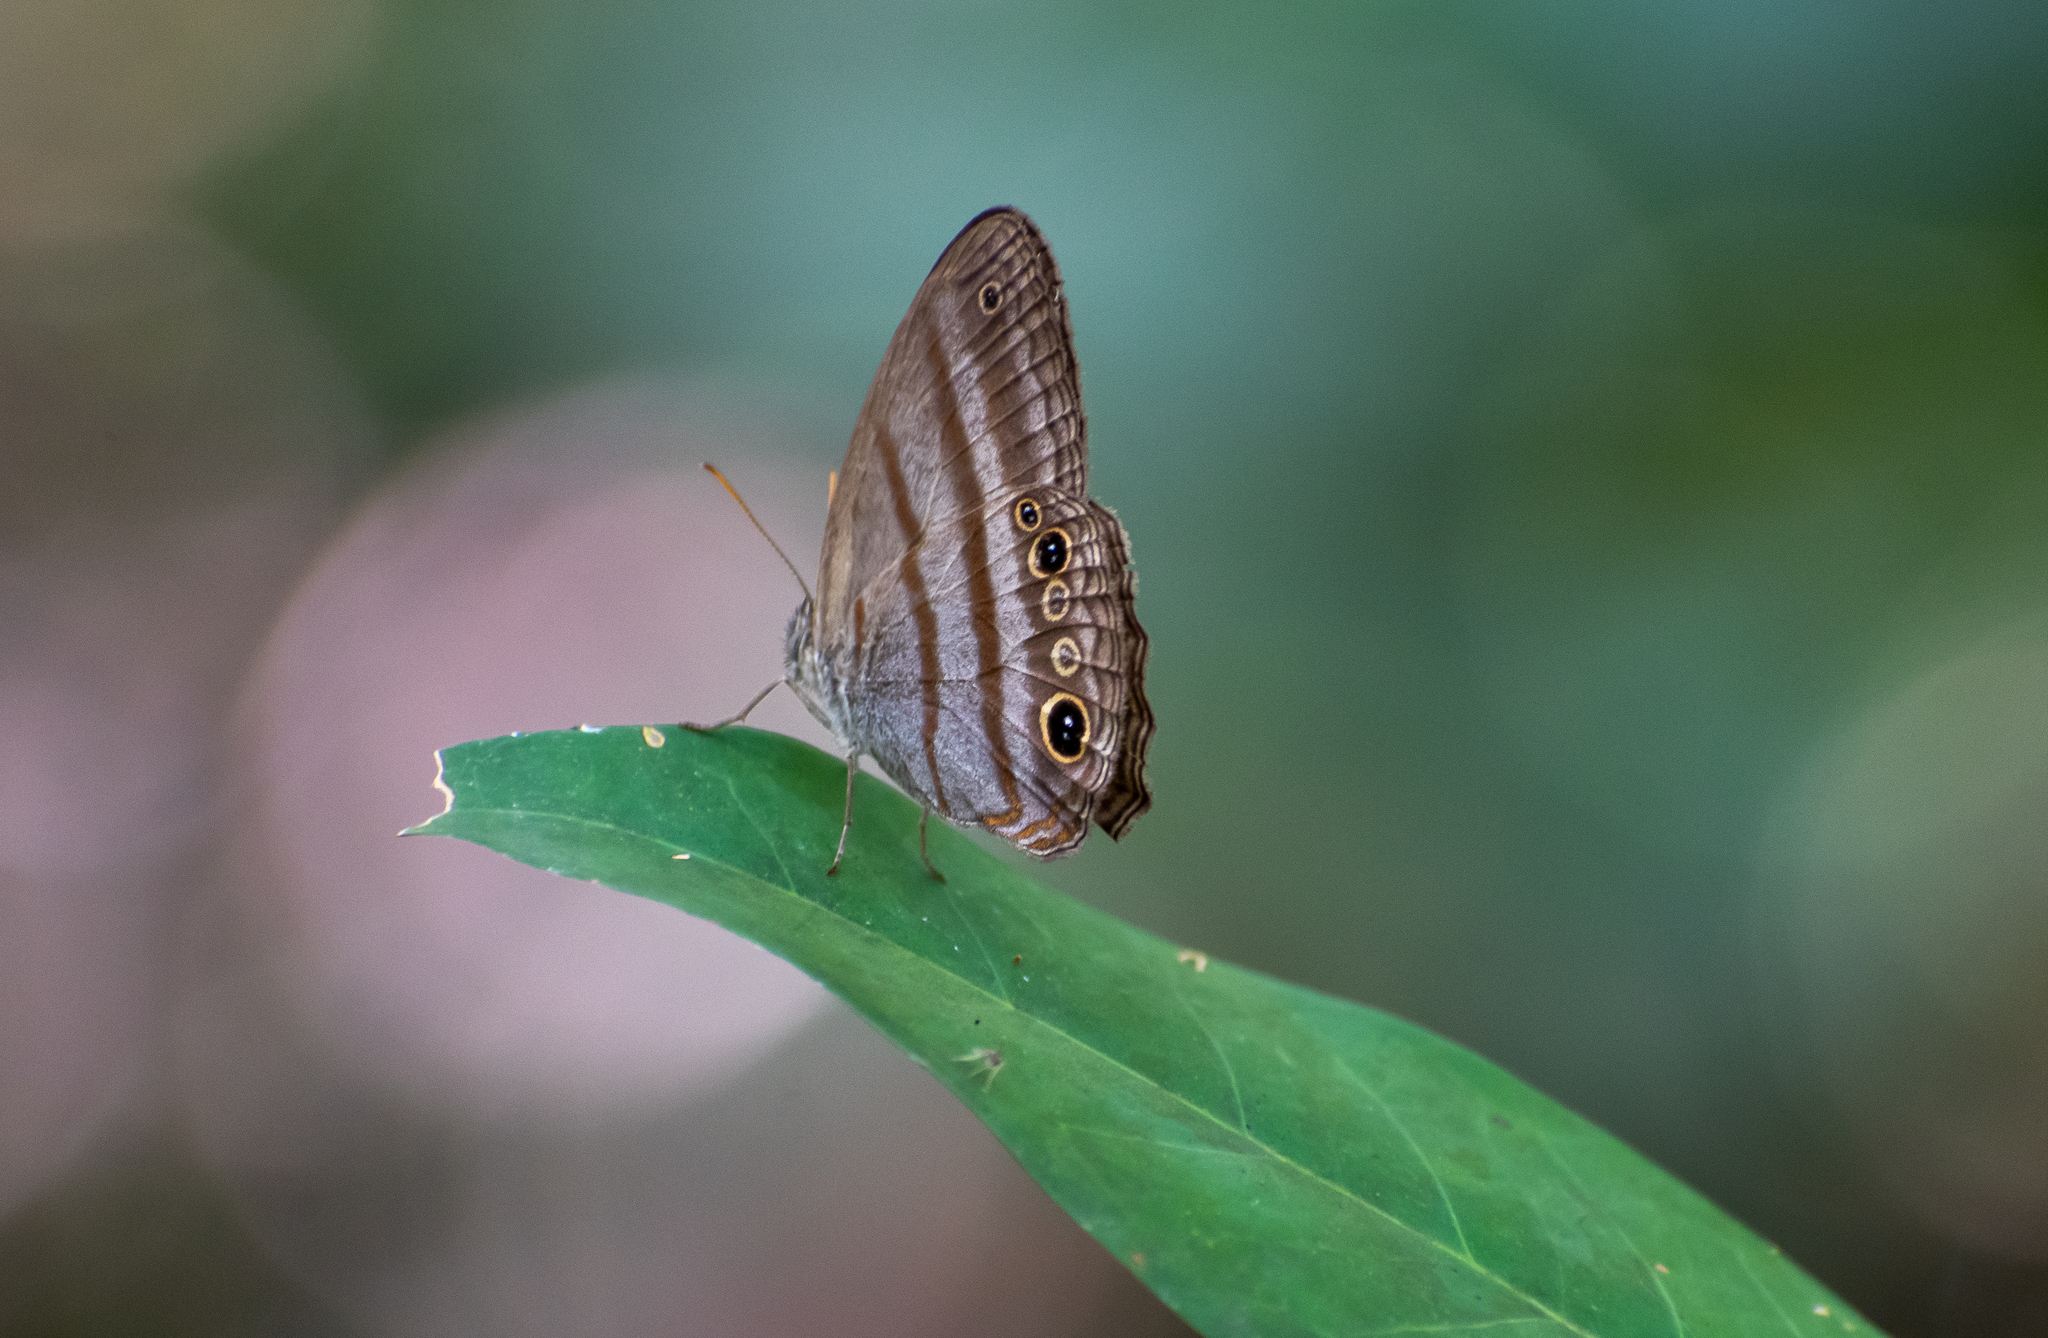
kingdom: Animalia
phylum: Arthropoda
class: Insecta
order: Lepidoptera
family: Nymphalidae
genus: Deltaya
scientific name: Deltaya
